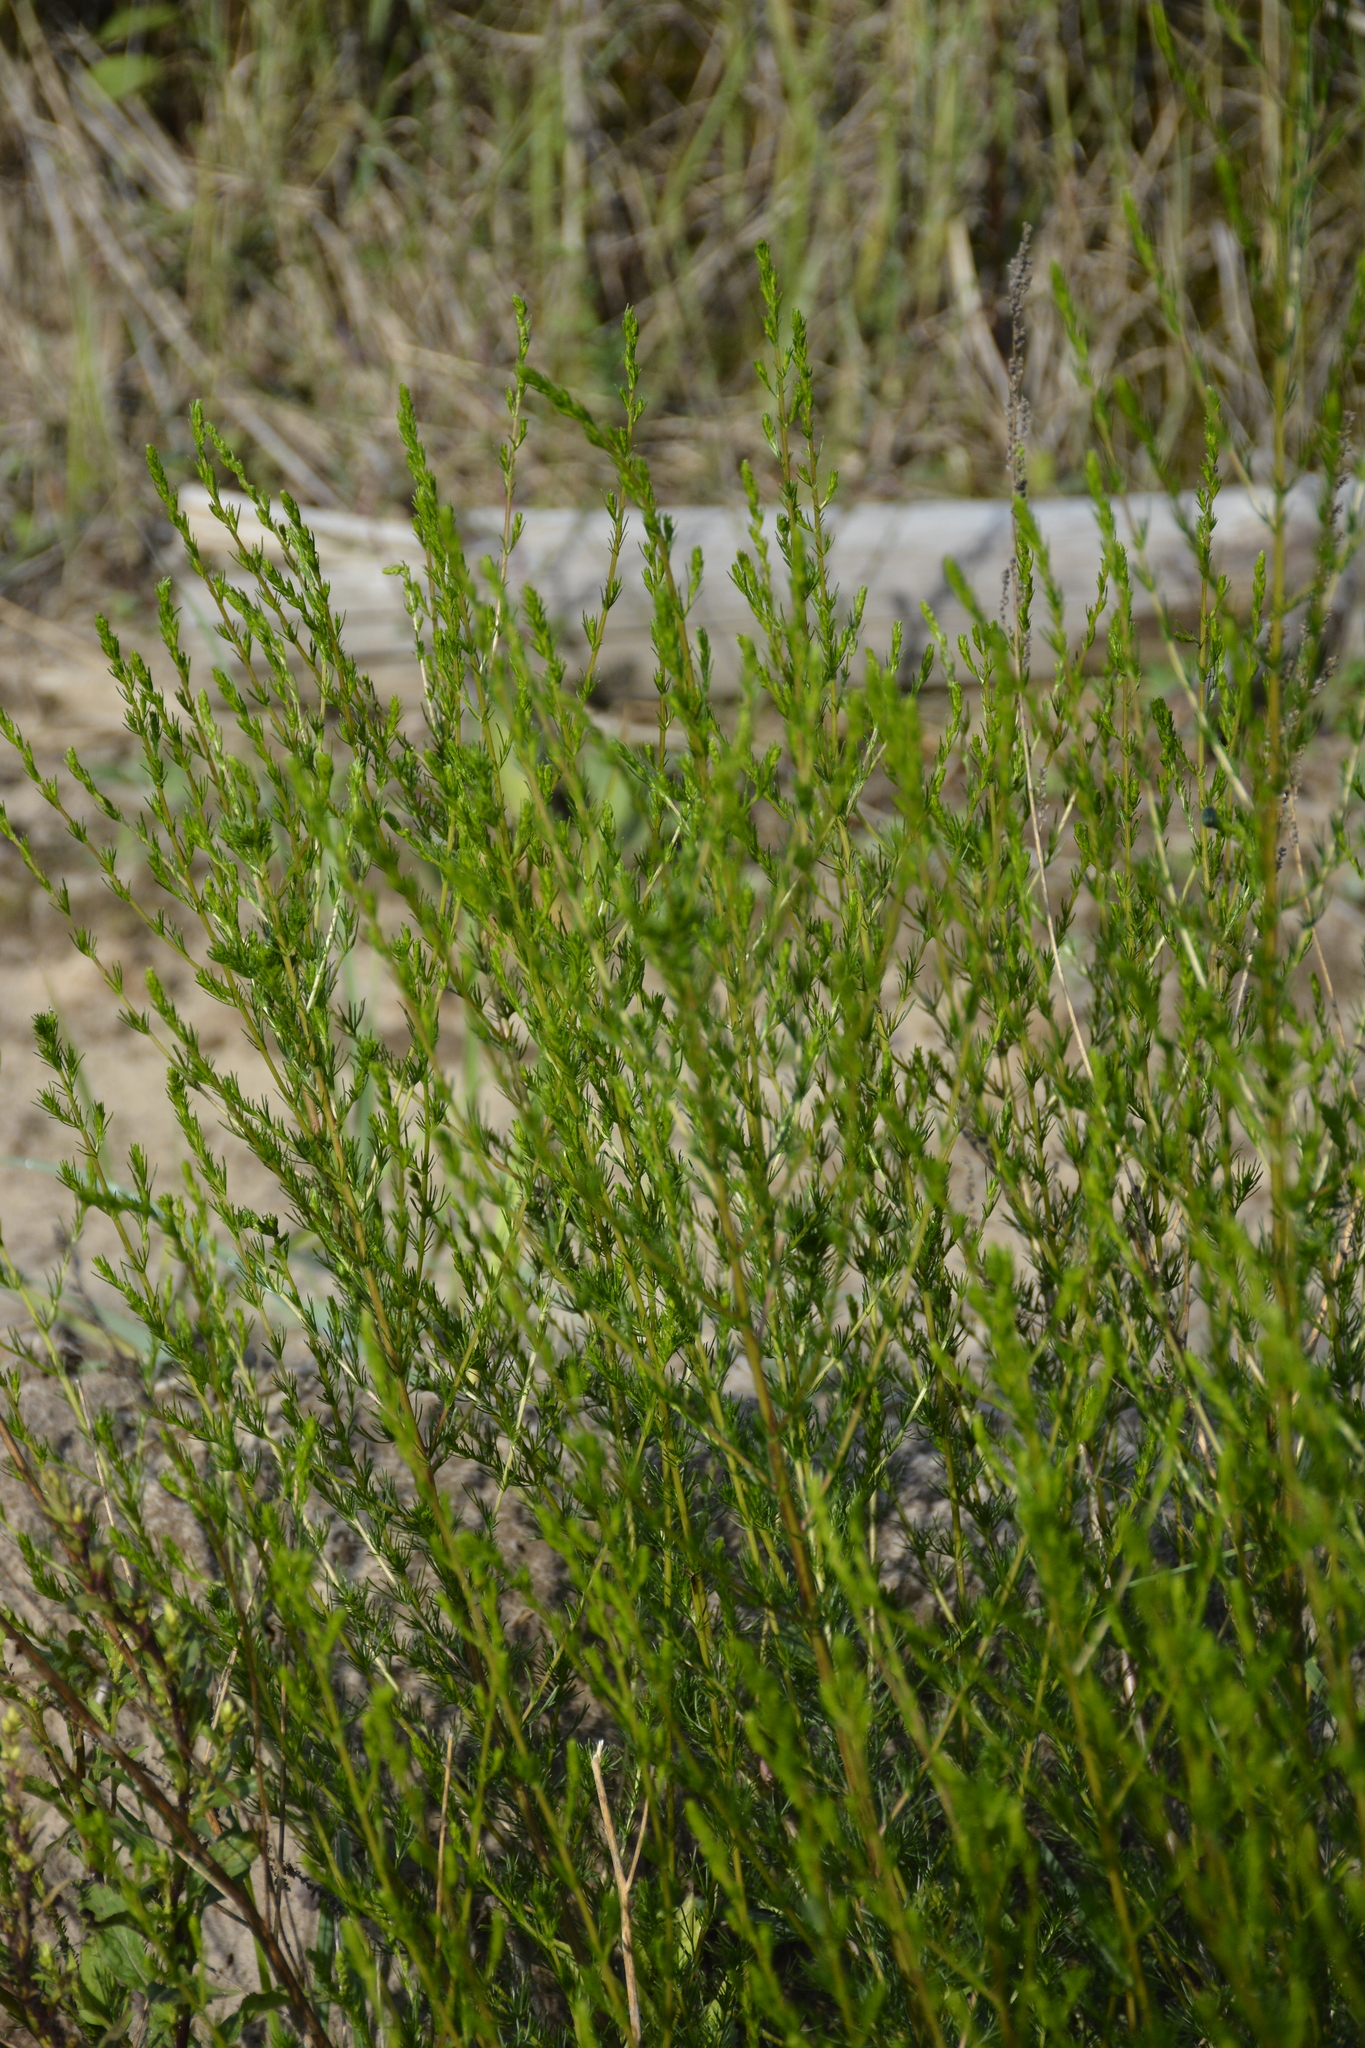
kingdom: Plantae
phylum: Tracheophyta
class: Magnoliopsida
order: Asterales
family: Asteraceae
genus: Artemisia
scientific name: Artemisia campestris
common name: Field wormwood
